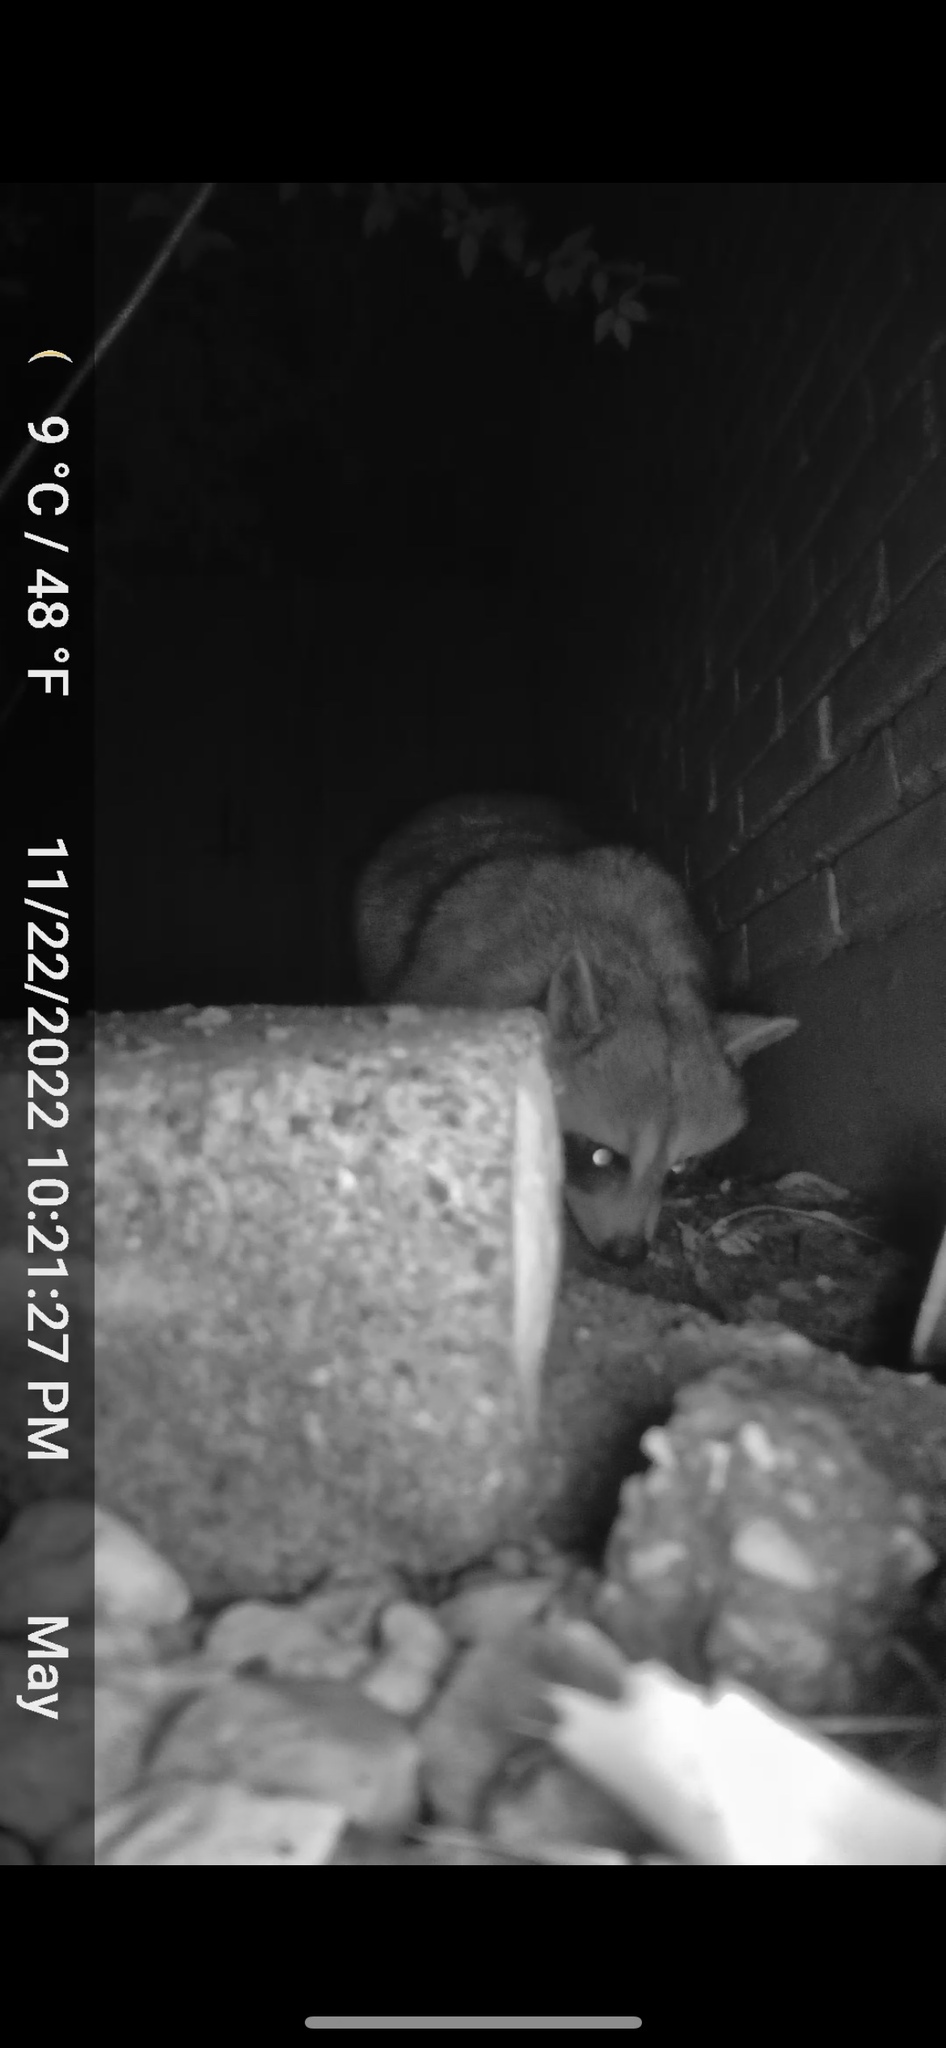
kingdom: Animalia
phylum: Chordata
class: Mammalia
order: Carnivora
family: Procyonidae
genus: Procyon
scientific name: Procyon lotor
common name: Raccoon
